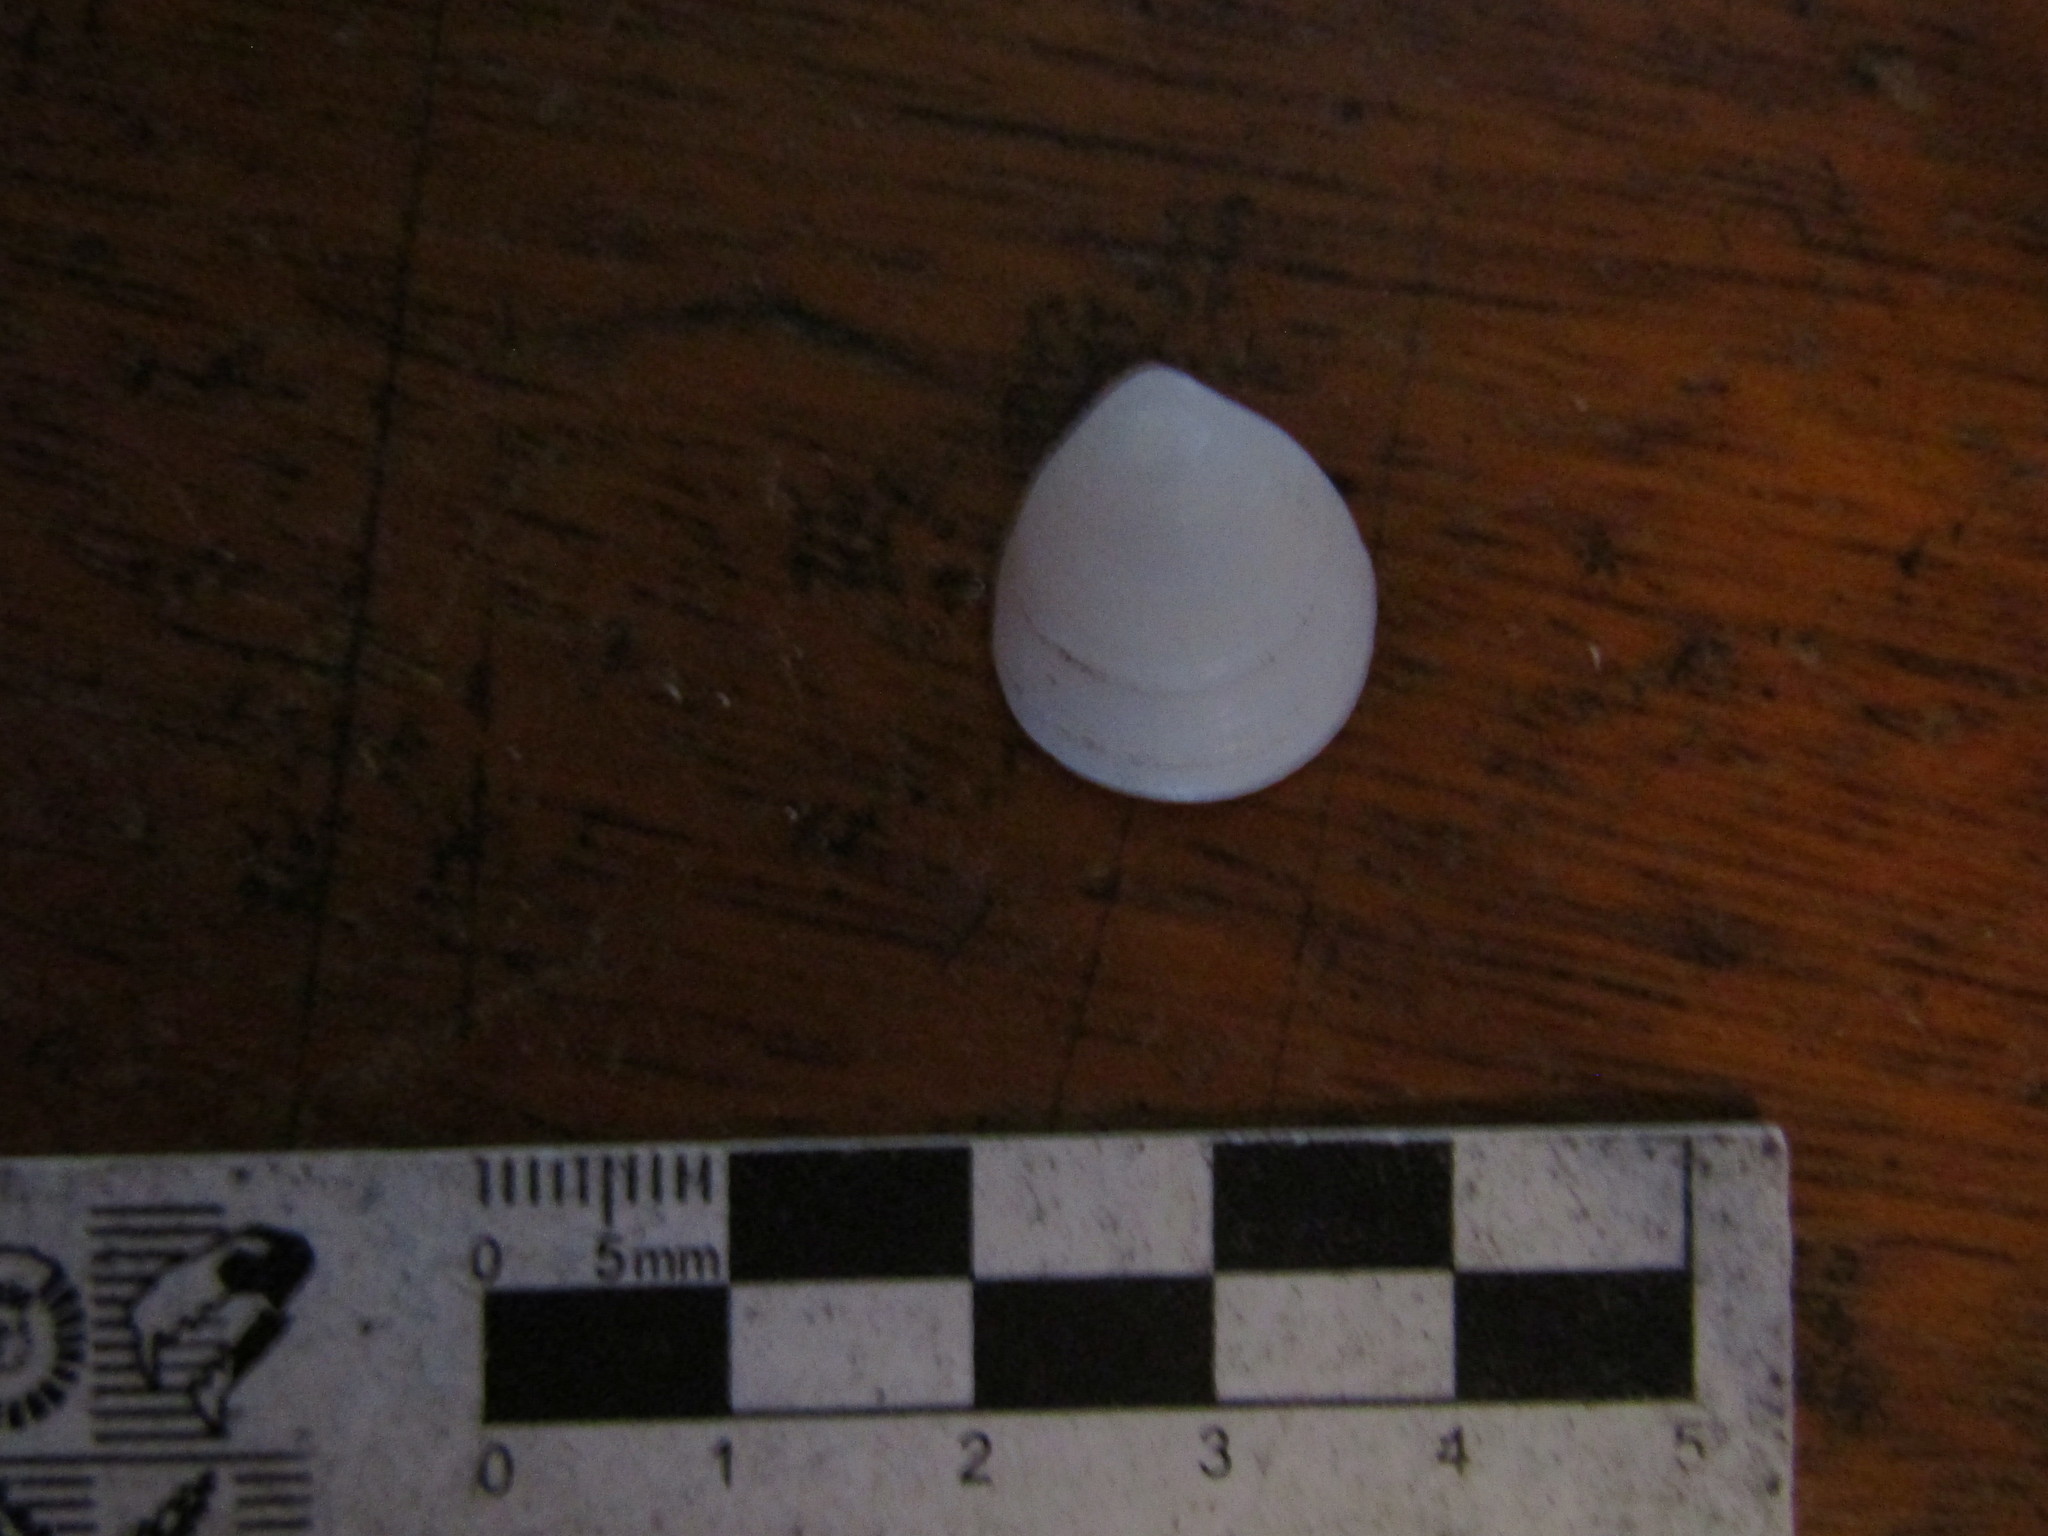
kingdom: Animalia
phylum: Mollusca
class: Bivalvia
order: Arcida
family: Glycymerididae
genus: Glycymeris
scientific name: Glycymeris longior
